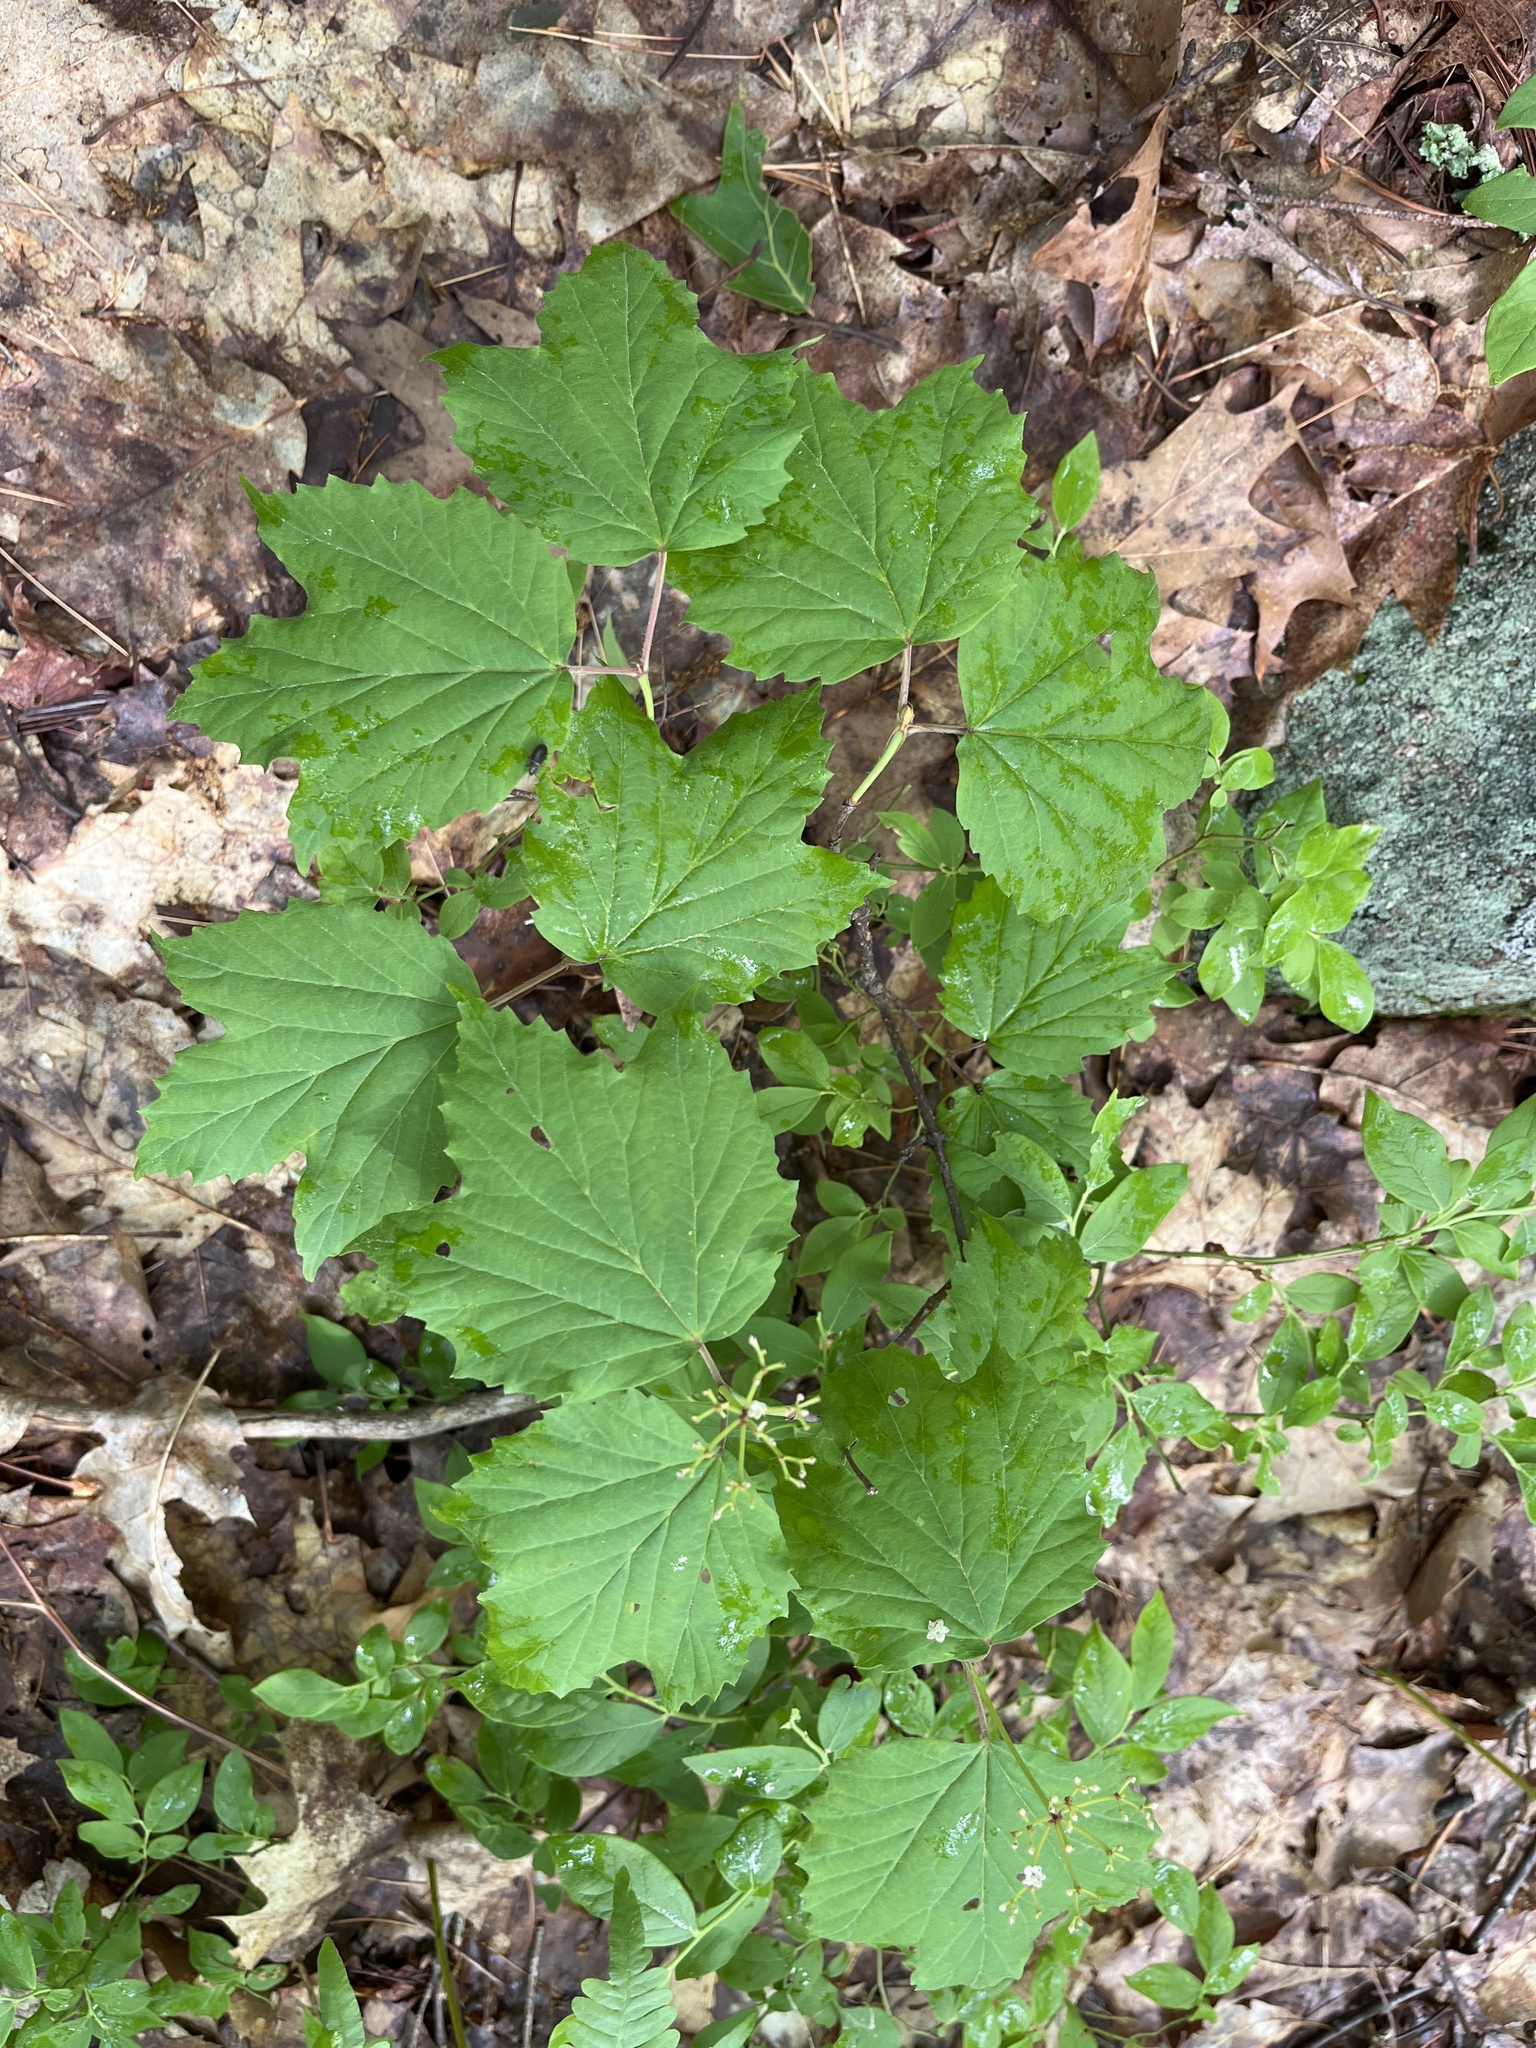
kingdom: Plantae
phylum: Tracheophyta
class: Magnoliopsida
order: Dipsacales
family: Viburnaceae
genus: Viburnum
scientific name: Viburnum acerifolium
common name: Dockmackie
